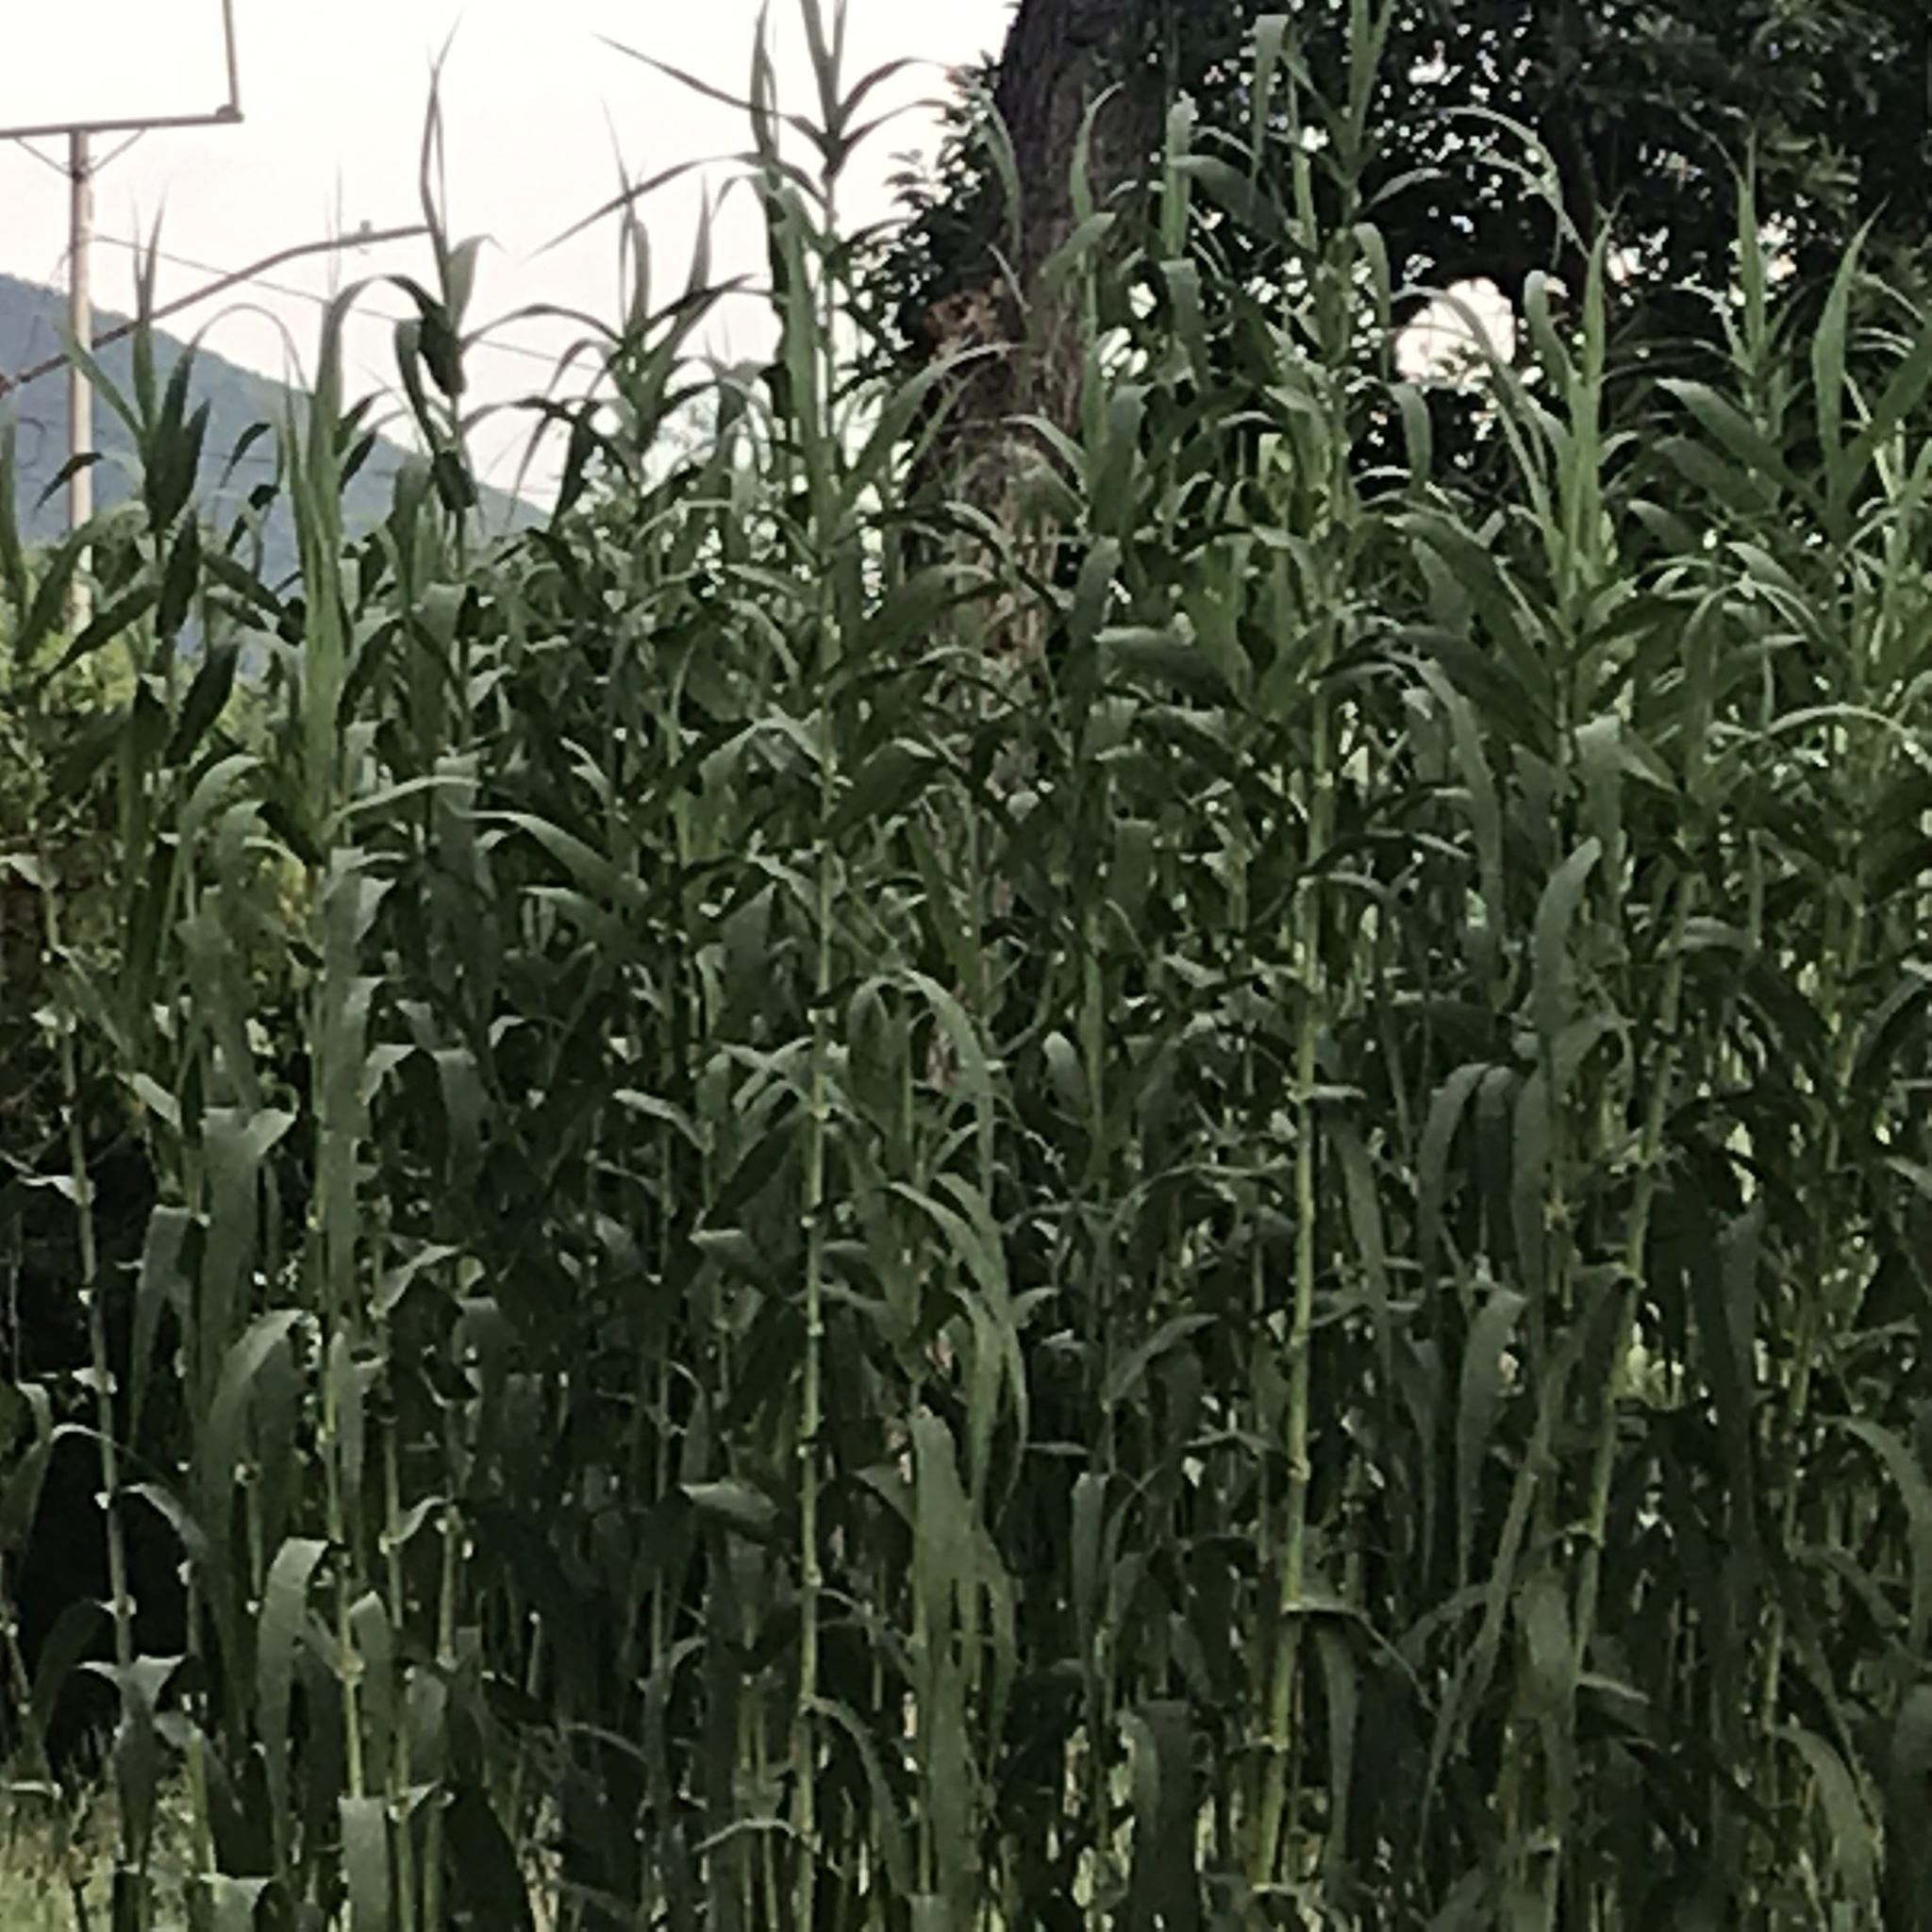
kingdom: Plantae
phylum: Tracheophyta
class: Liliopsida
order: Poales
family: Poaceae
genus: Arundo
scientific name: Arundo donax
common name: Giant reed
